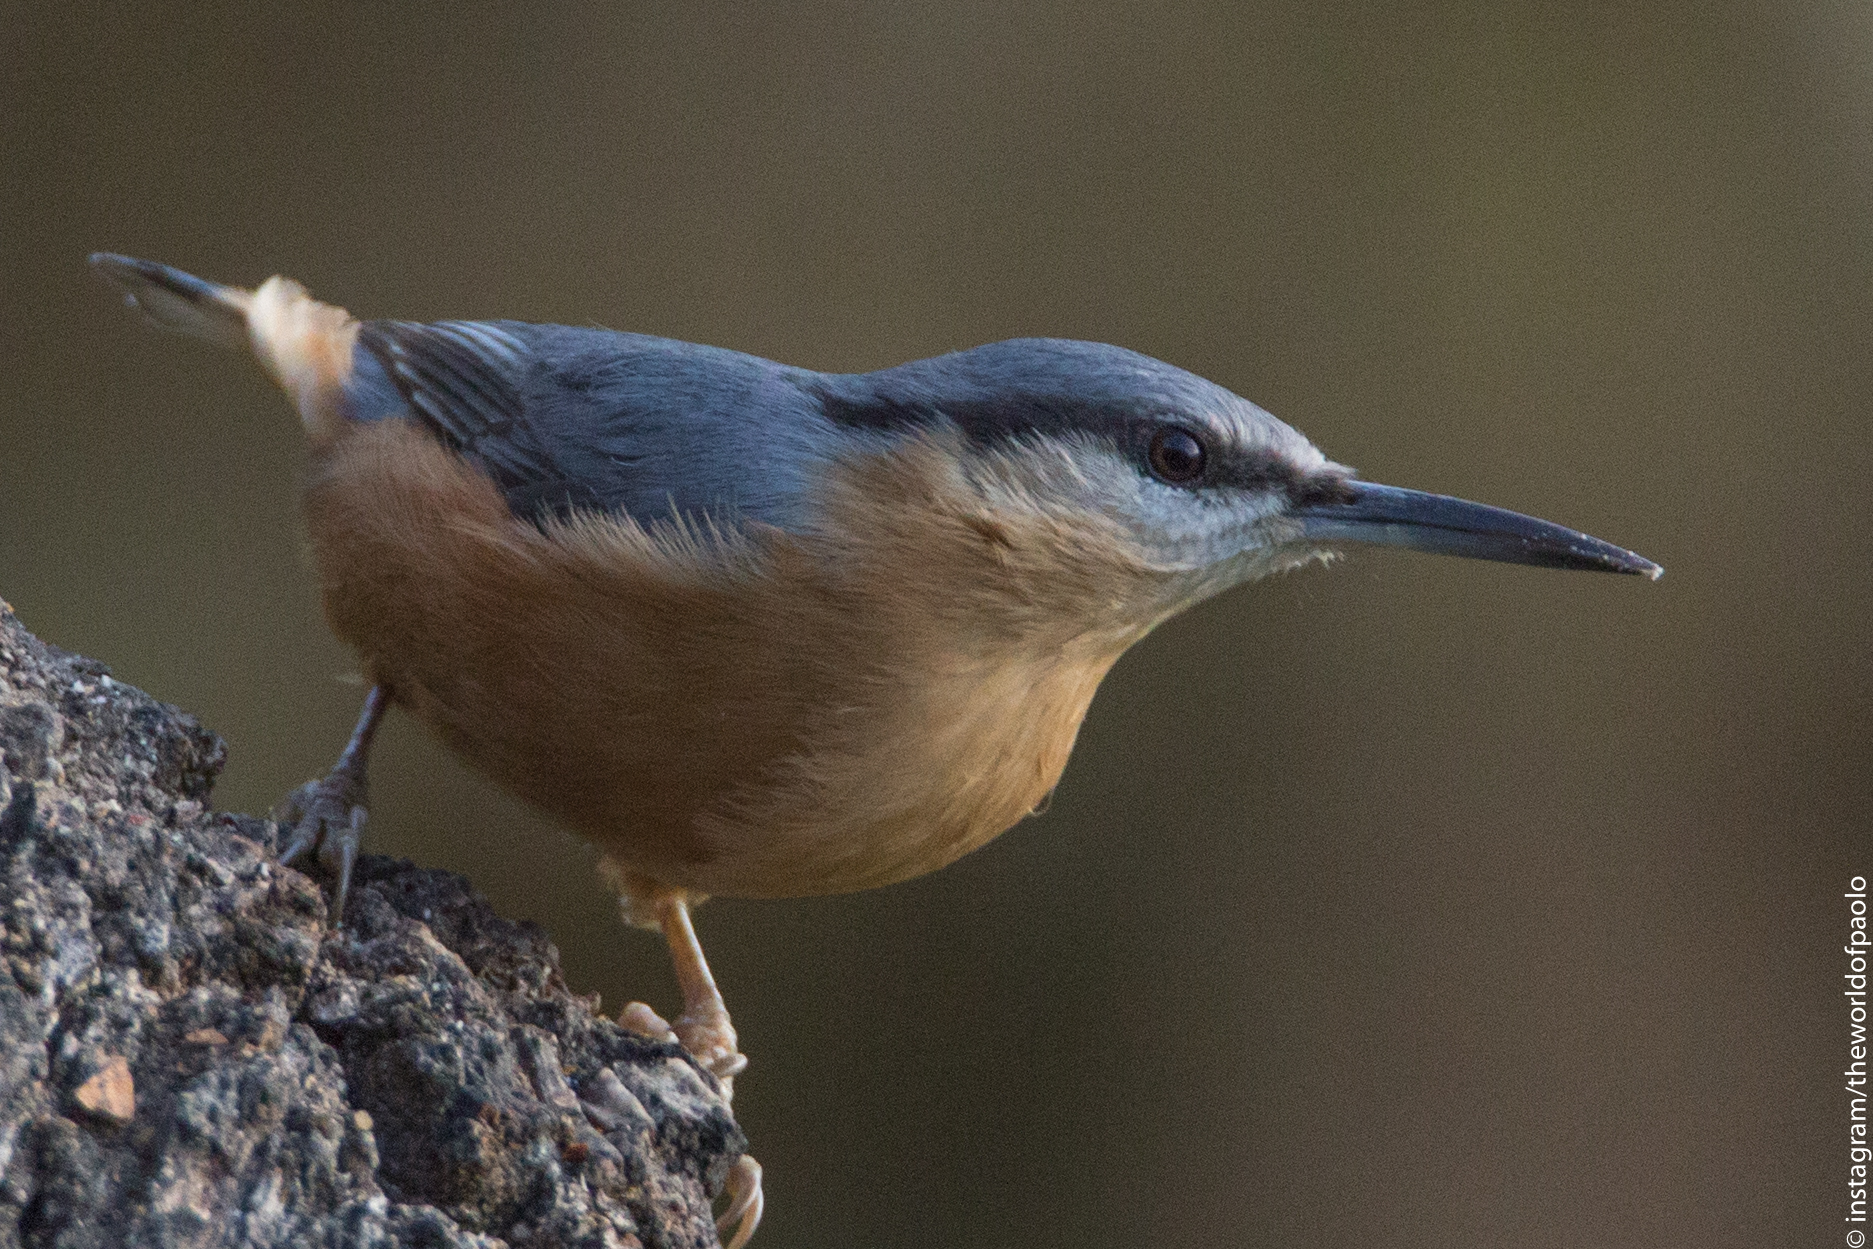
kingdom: Animalia
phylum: Chordata
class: Aves
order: Passeriformes
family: Sittidae
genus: Sitta
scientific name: Sitta europaea
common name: Eurasian nuthatch
